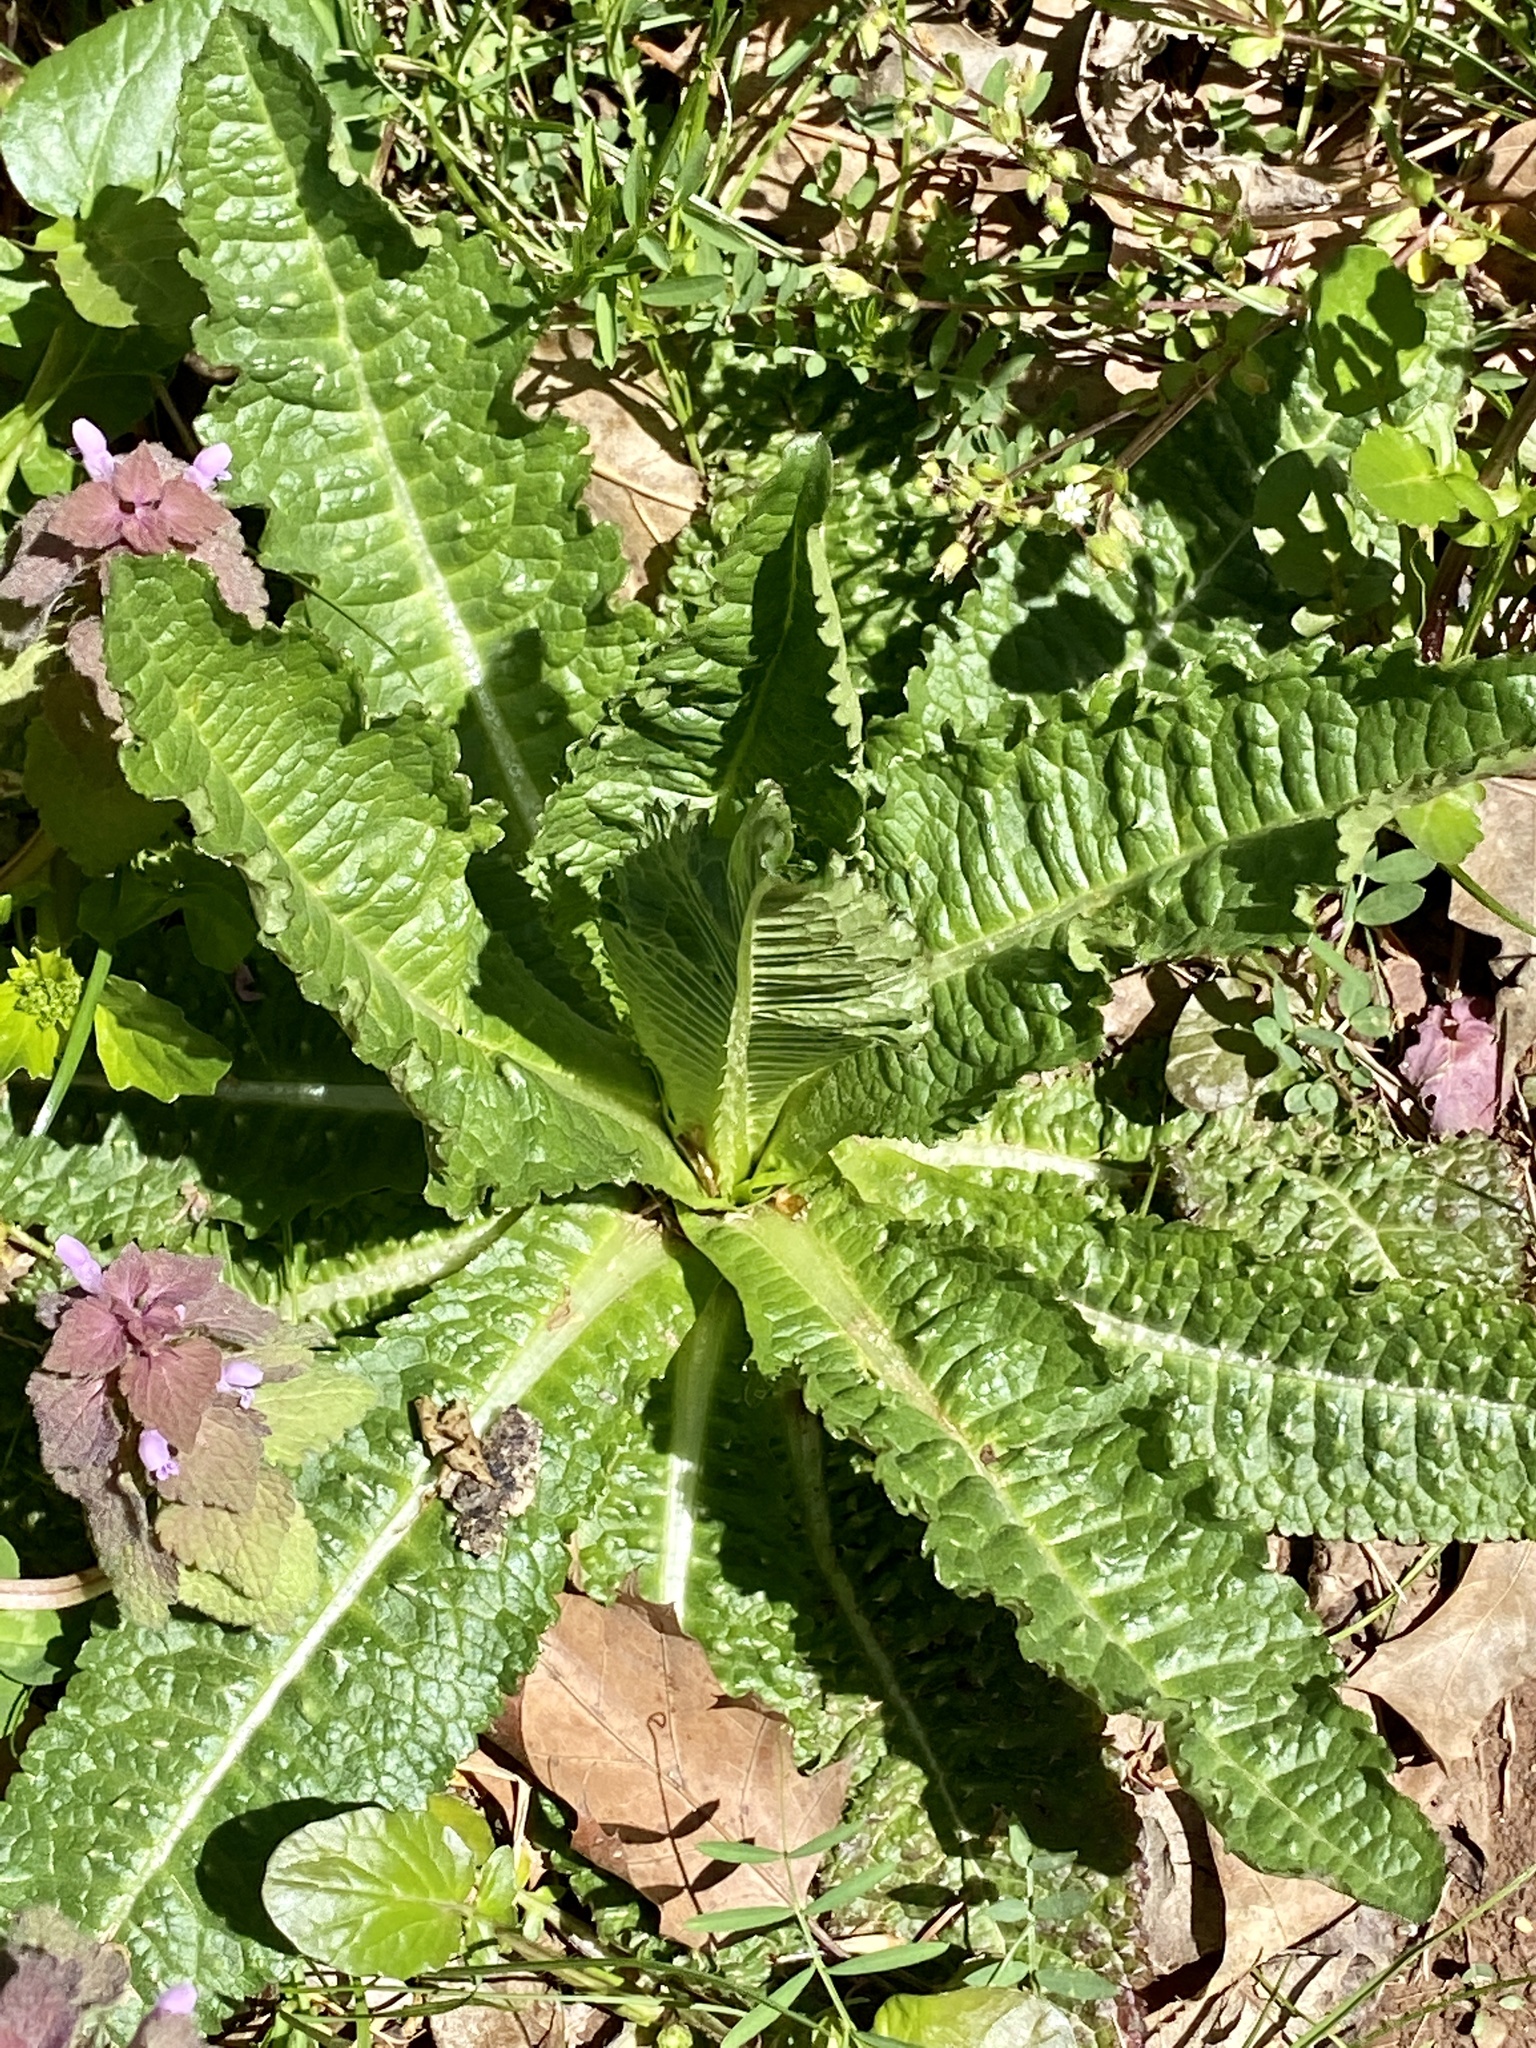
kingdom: Plantae
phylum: Tracheophyta
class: Magnoliopsida
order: Dipsacales
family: Caprifoliaceae
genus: Dipsacus
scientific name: Dipsacus fullonum
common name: Teasel
